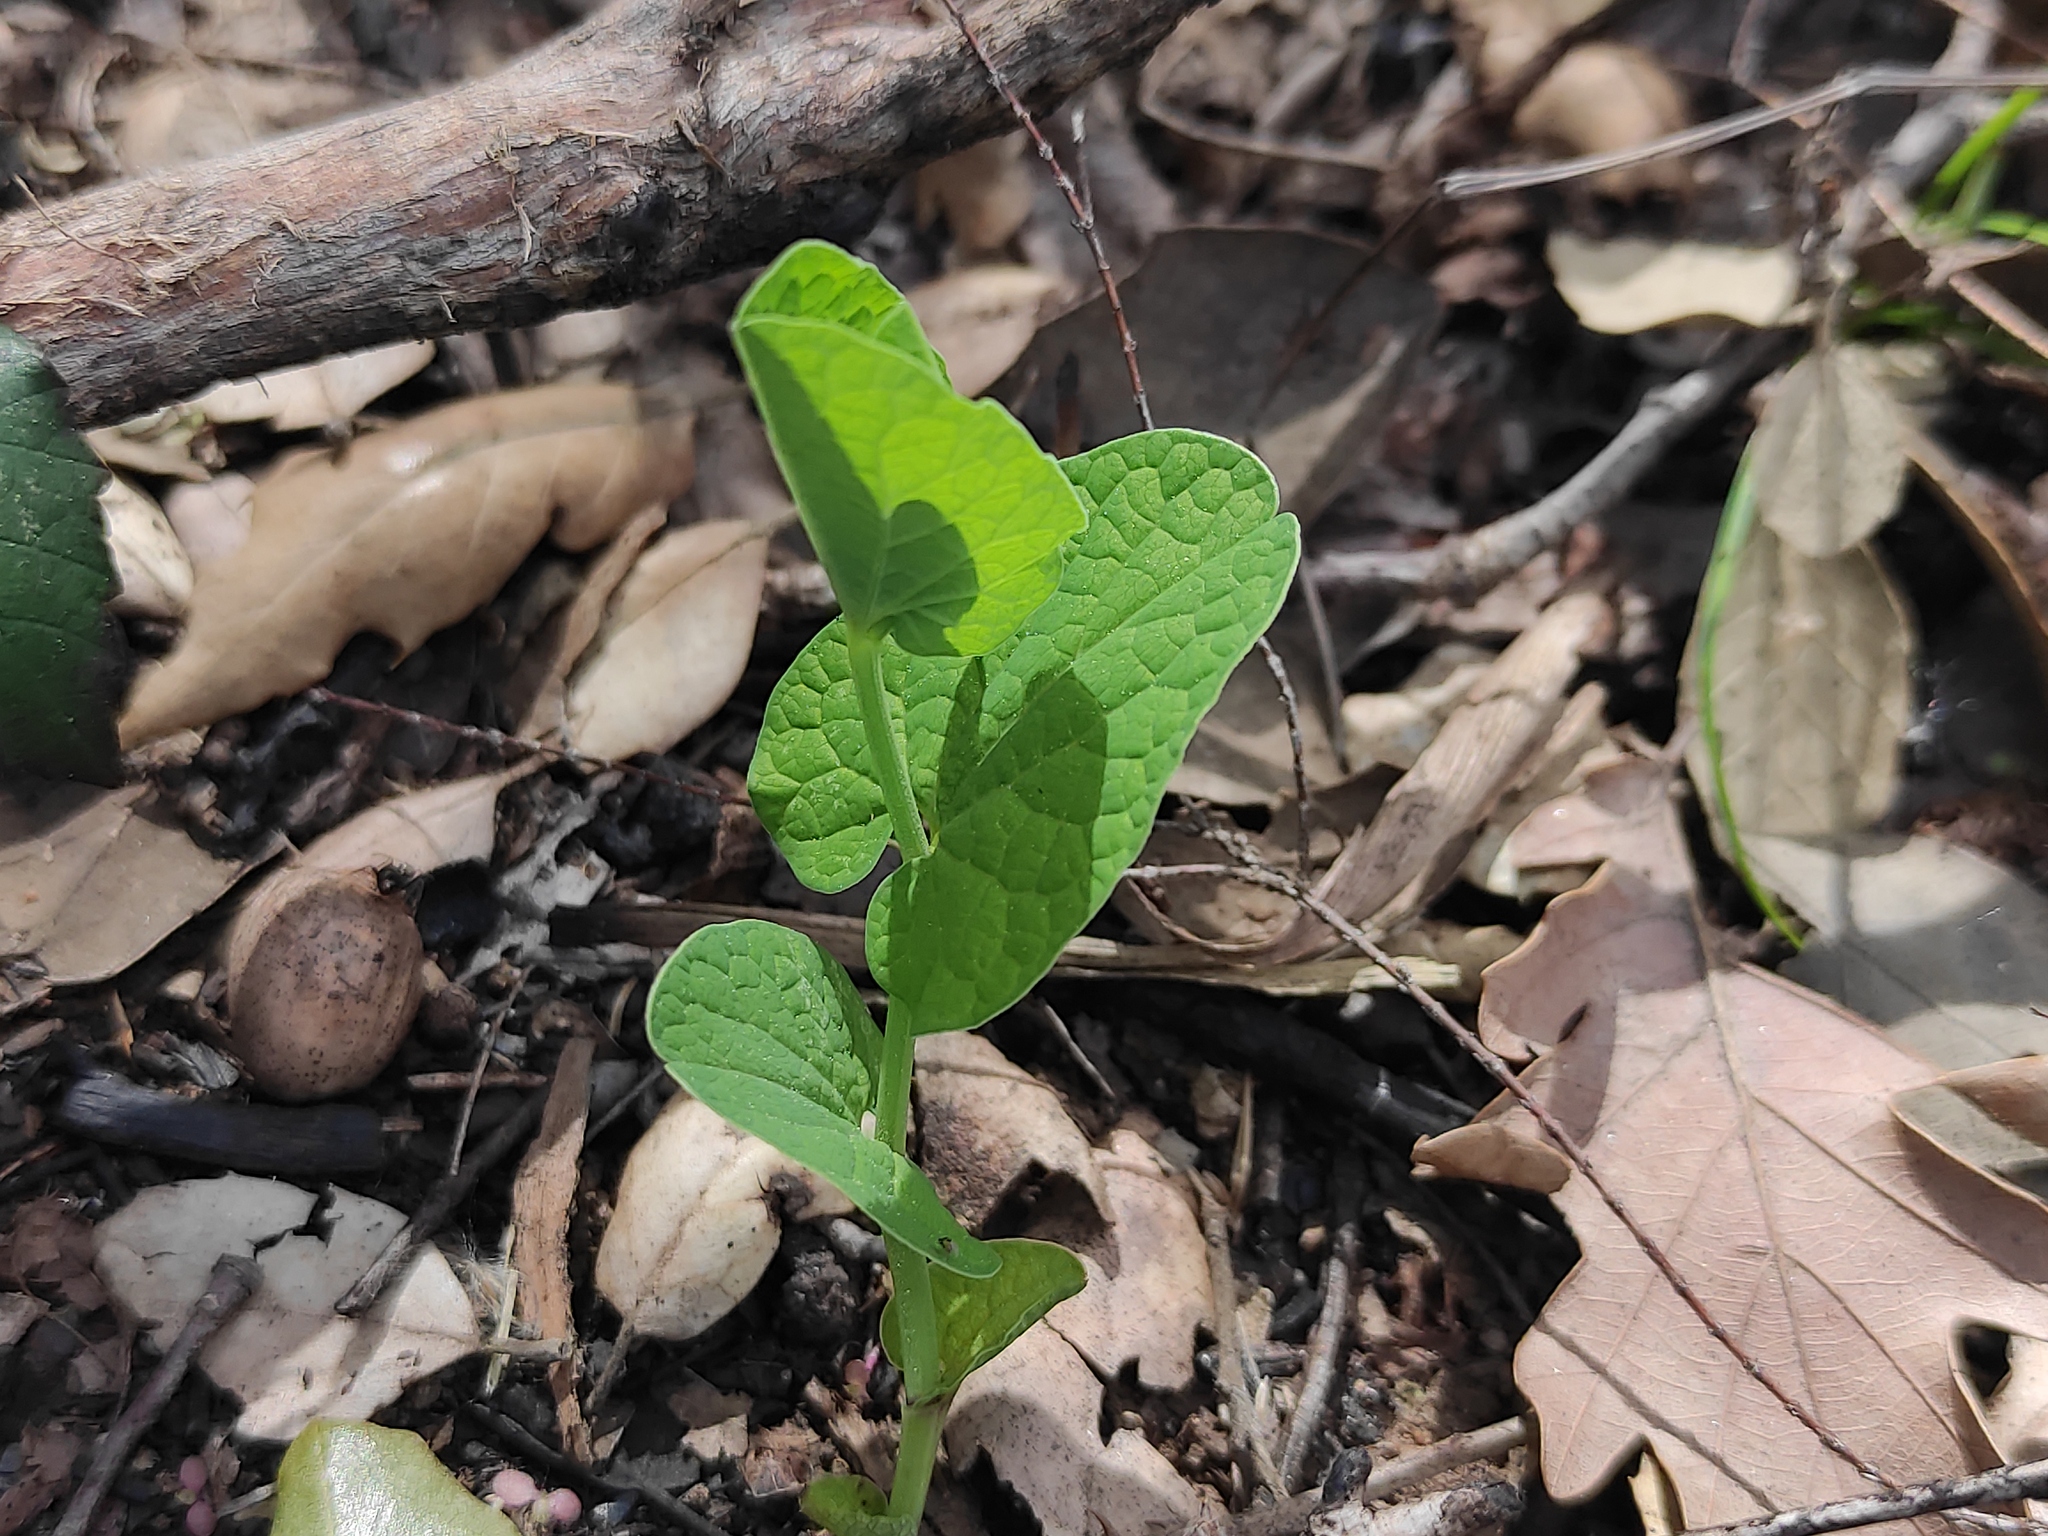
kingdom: Plantae
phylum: Tracheophyta
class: Magnoliopsida
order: Piperales
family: Aristolochiaceae
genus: Aristolochia
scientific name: Aristolochia rotunda
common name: Smearwort
